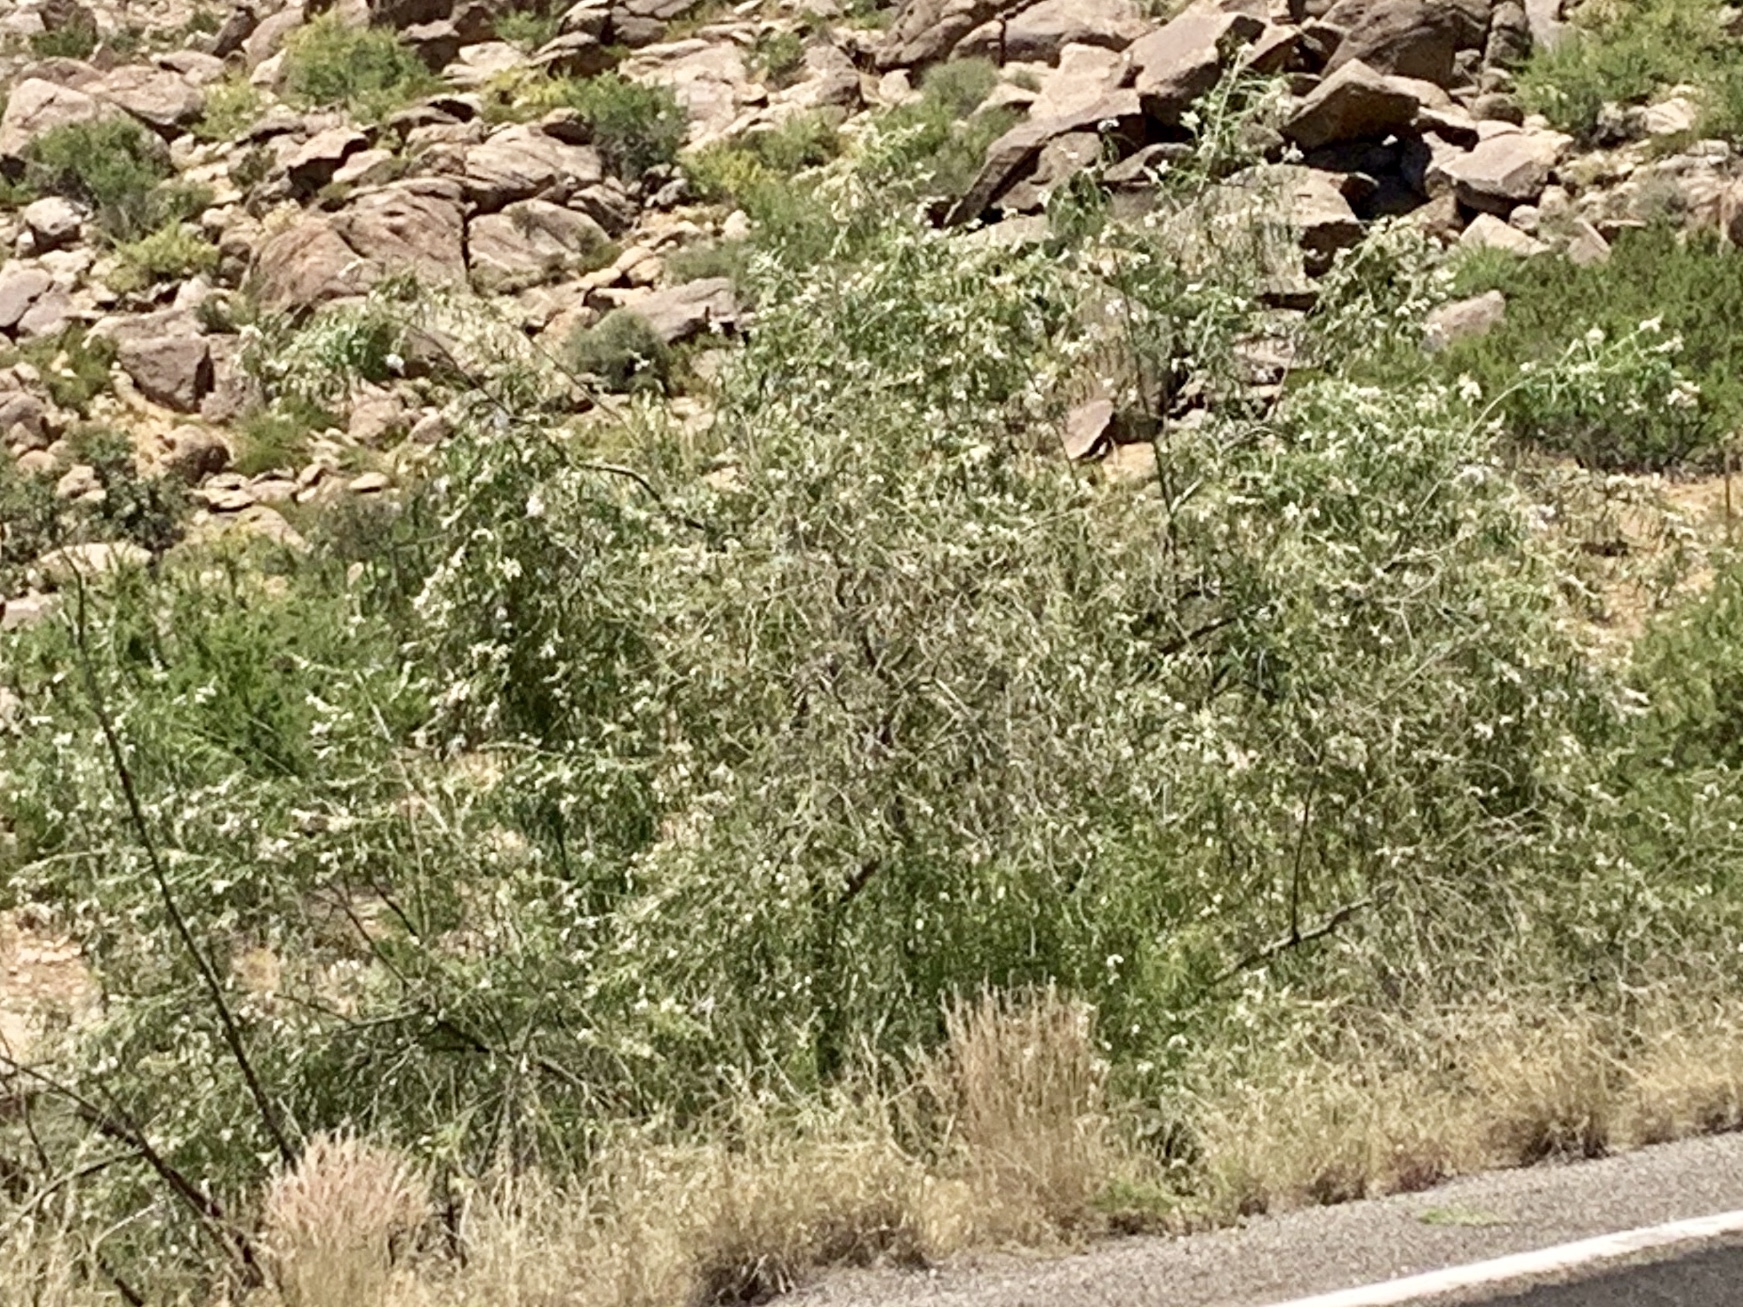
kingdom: Plantae
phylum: Tracheophyta
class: Magnoliopsida
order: Lamiales
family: Bignoniaceae
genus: Chilopsis
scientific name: Chilopsis linearis
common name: Desert-willow
